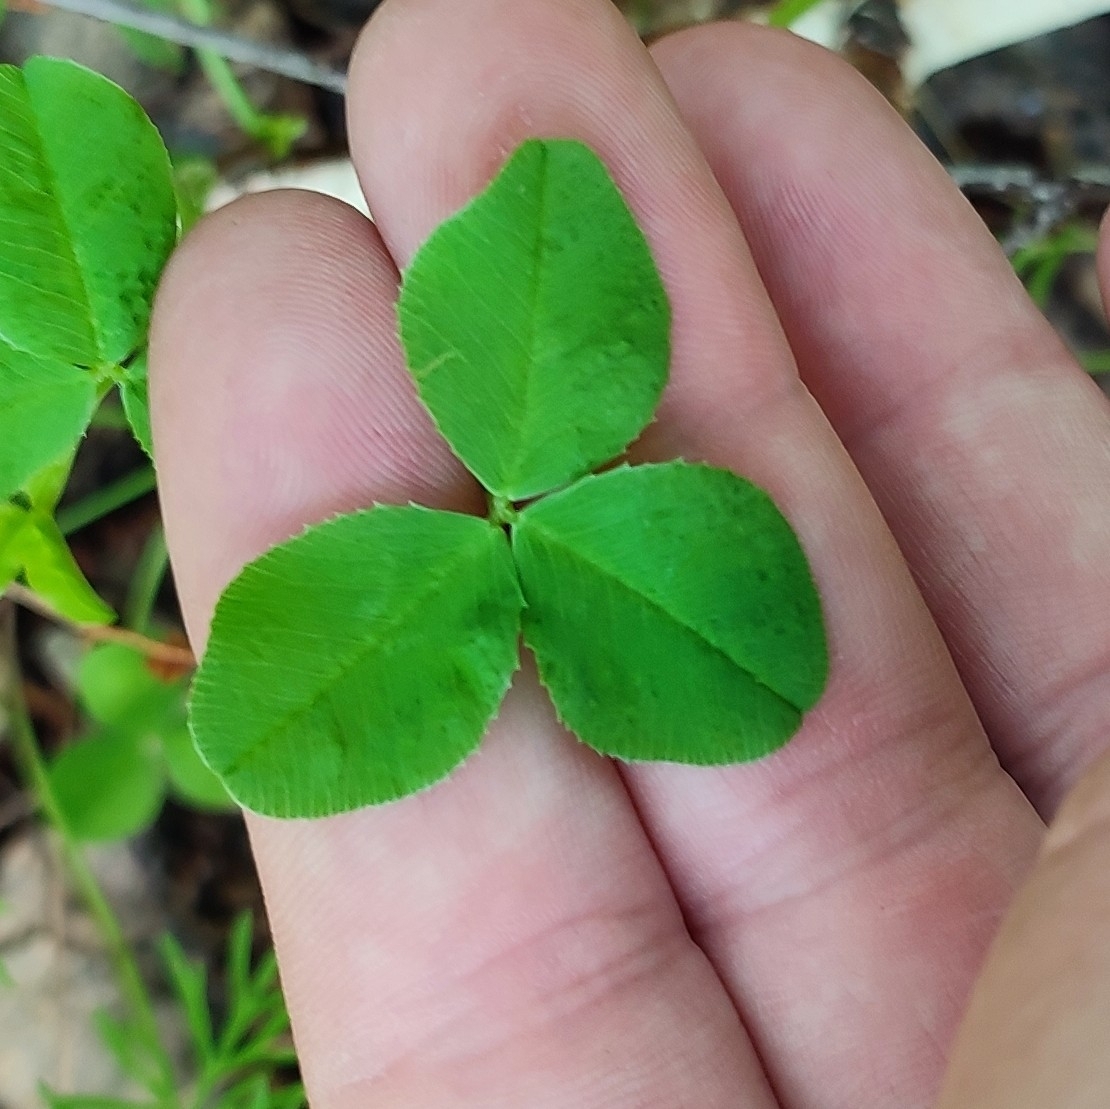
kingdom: Plantae
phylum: Tracheophyta
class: Magnoliopsida
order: Fabales
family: Fabaceae
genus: Trifolium
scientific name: Trifolium repens
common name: White clover
